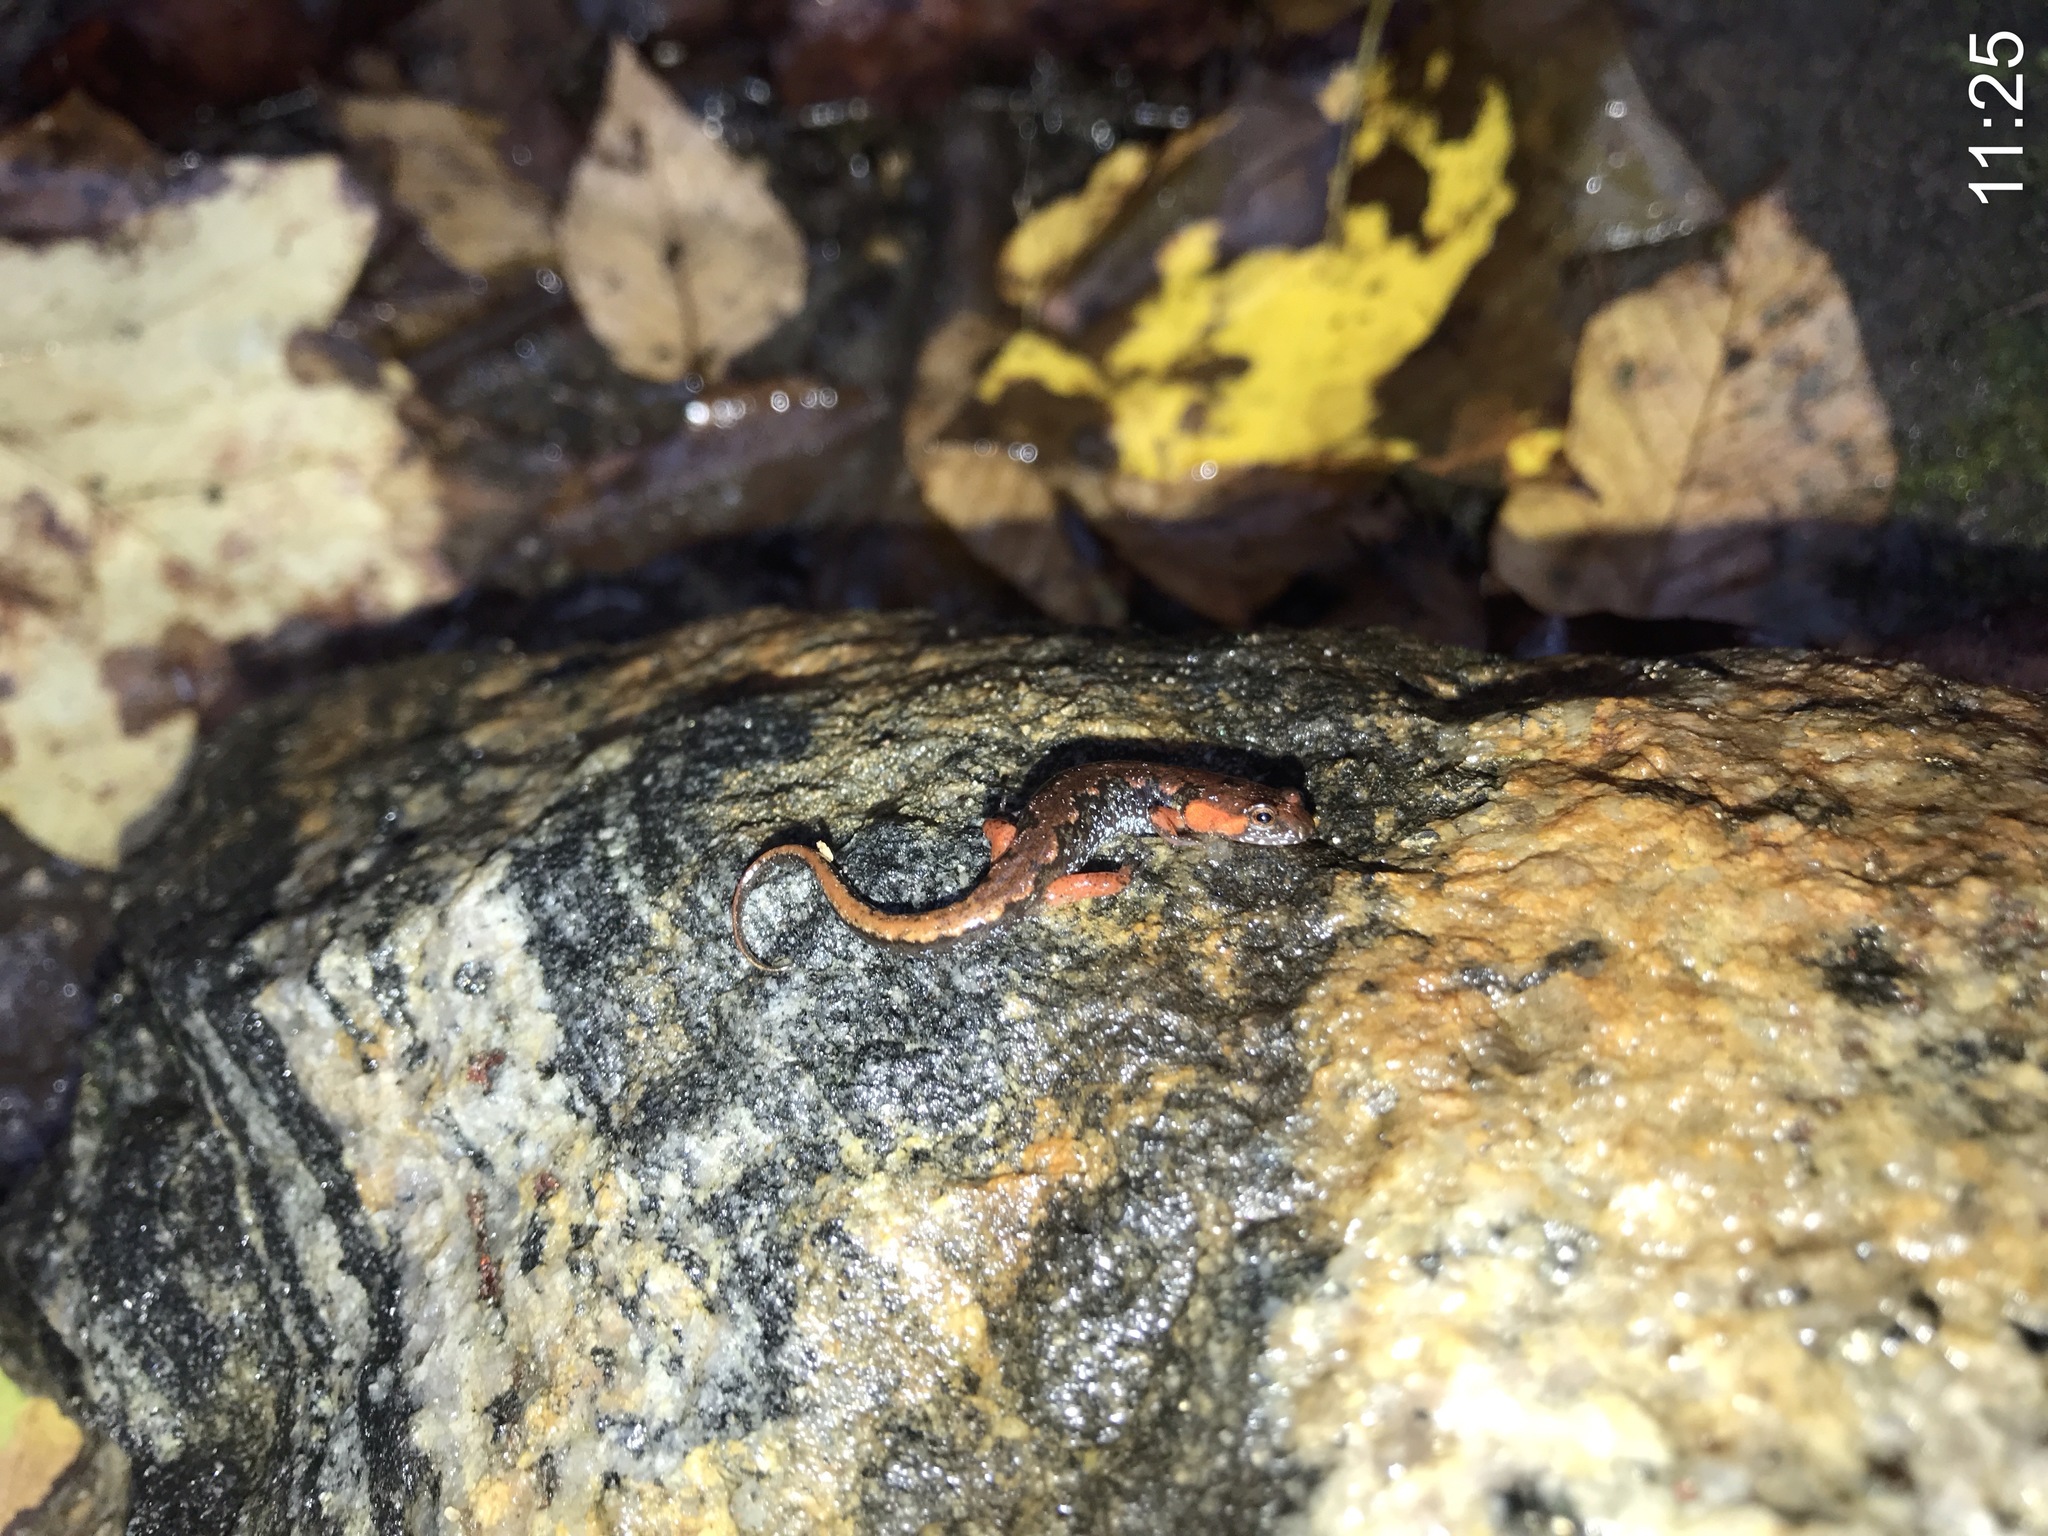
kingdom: Animalia
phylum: Chordata
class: Amphibia
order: Caudata
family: Plethodontidae
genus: Desmognathus
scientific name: Desmognathus ocoee
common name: Ocoee salamander
